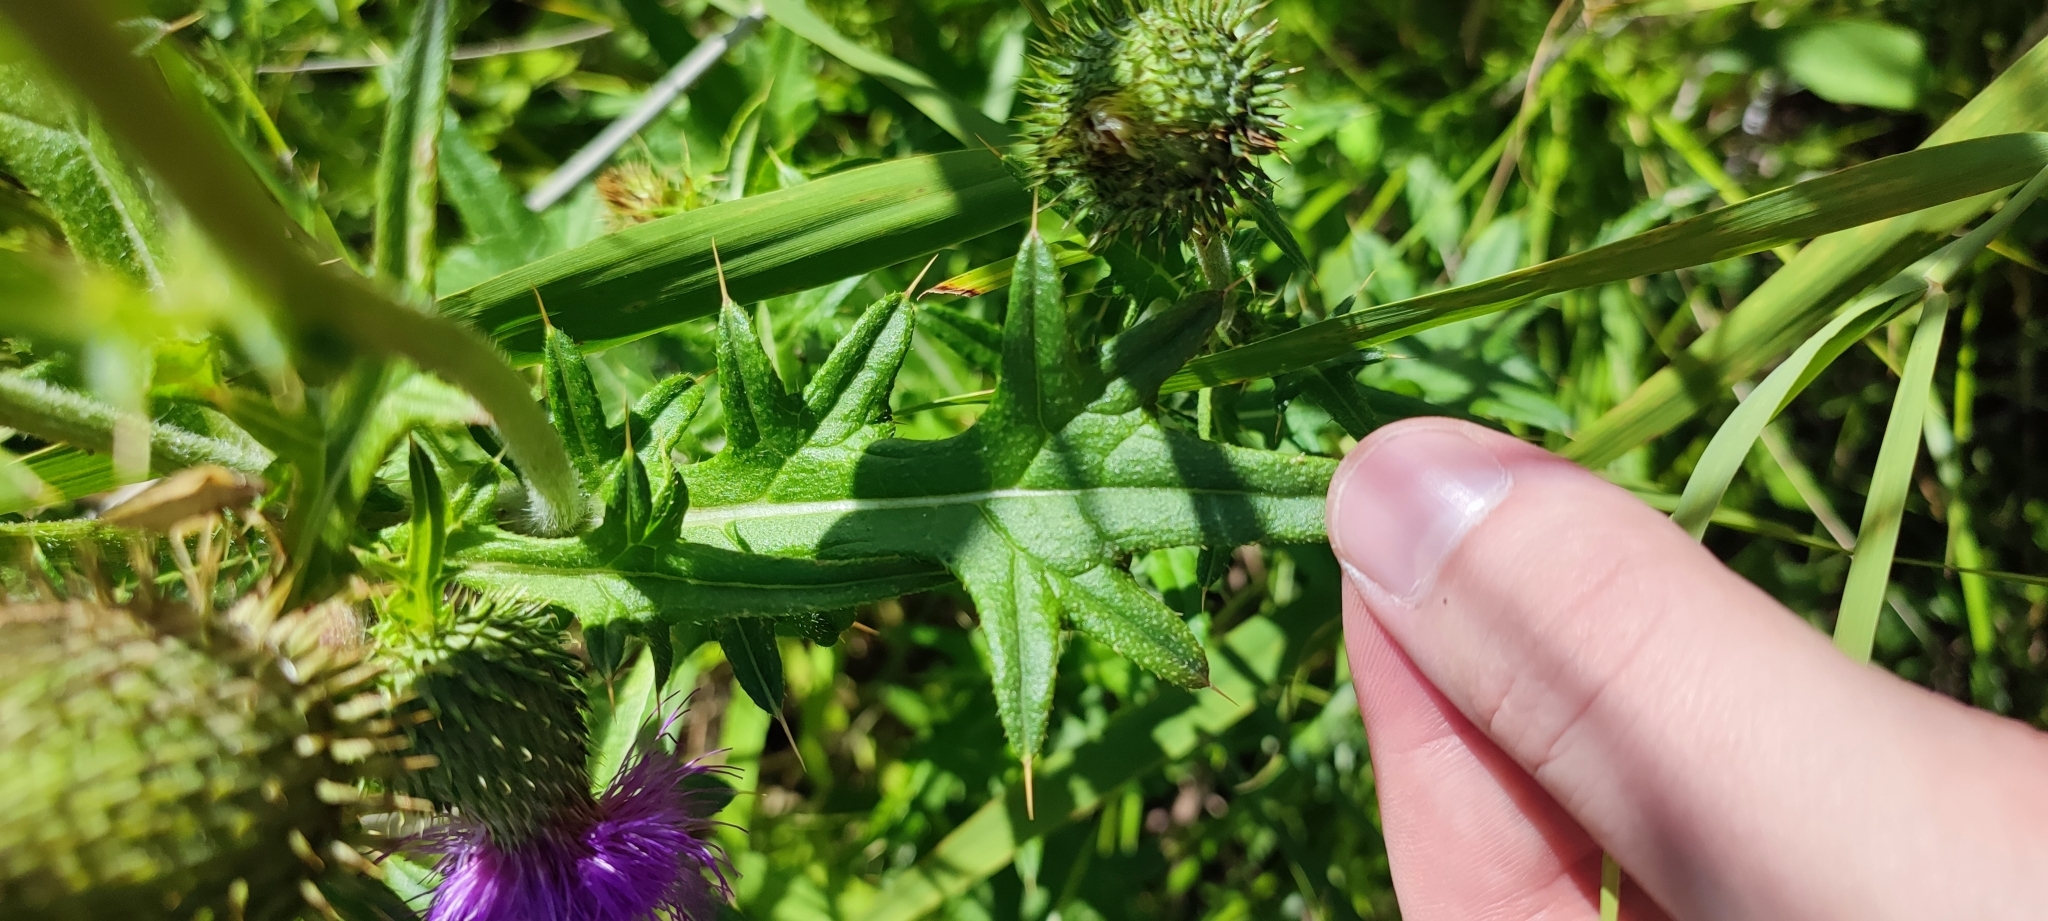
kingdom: Plantae
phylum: Tracheophyta
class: Magnoliopsida
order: Asterales
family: Asteraceae
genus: Cirsium
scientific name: Cirsium vulgare
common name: Bull thistle
